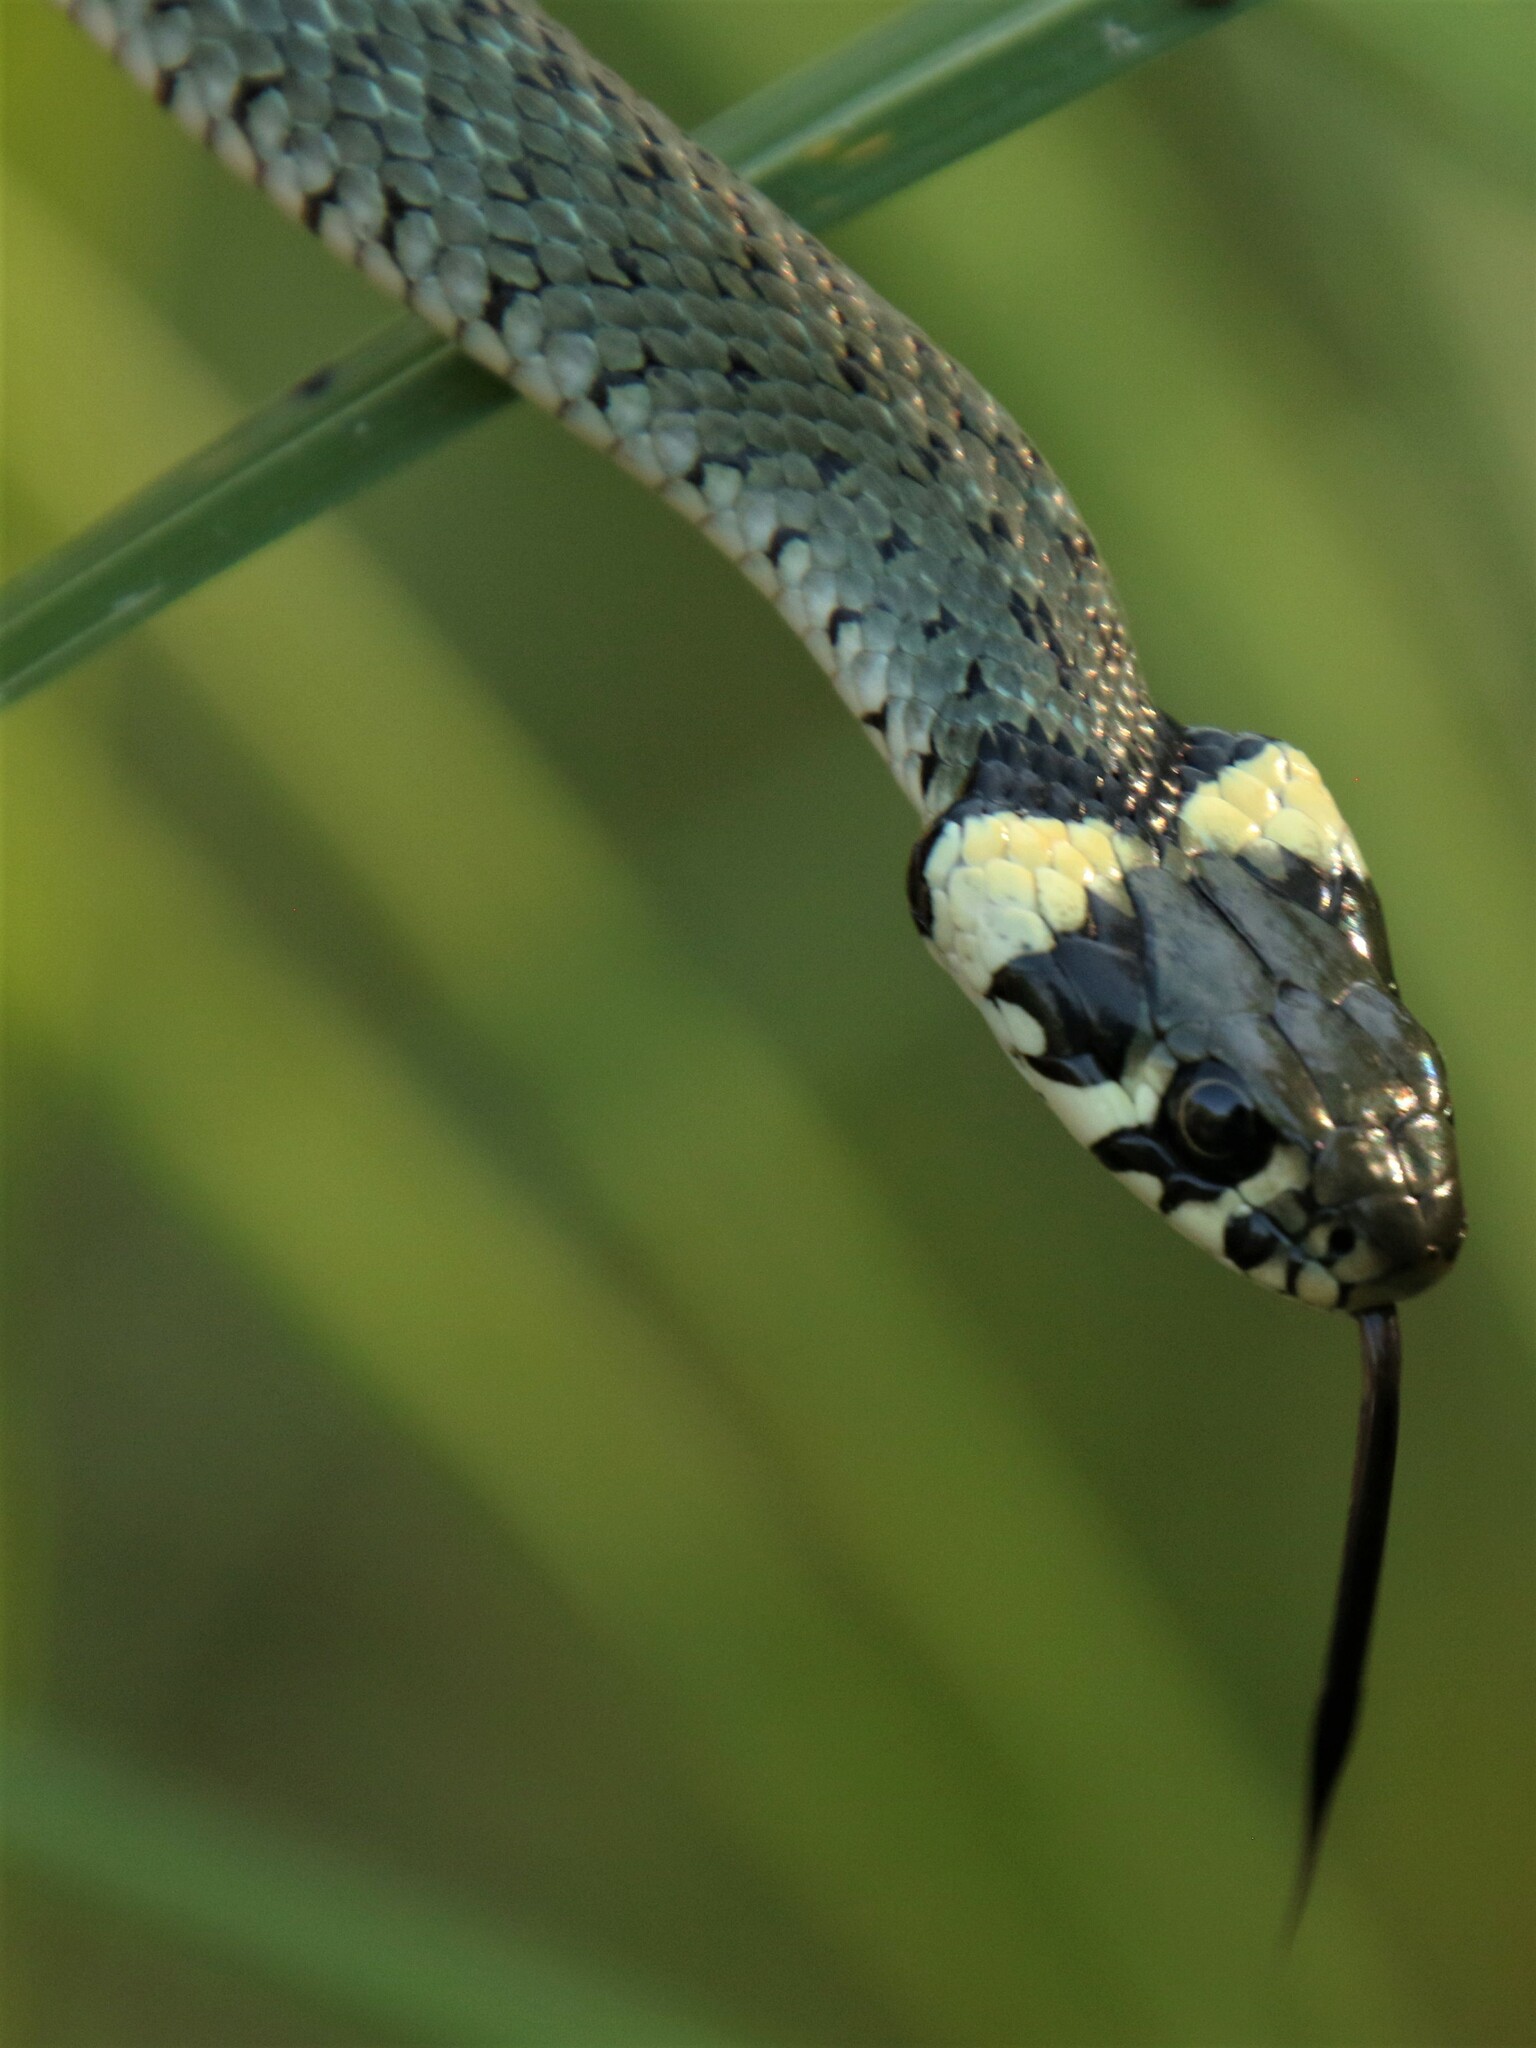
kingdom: Animalia
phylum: Chordata
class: Squamata
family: Colubridae
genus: Natrix
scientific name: Natrix natrix
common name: Grass snake
